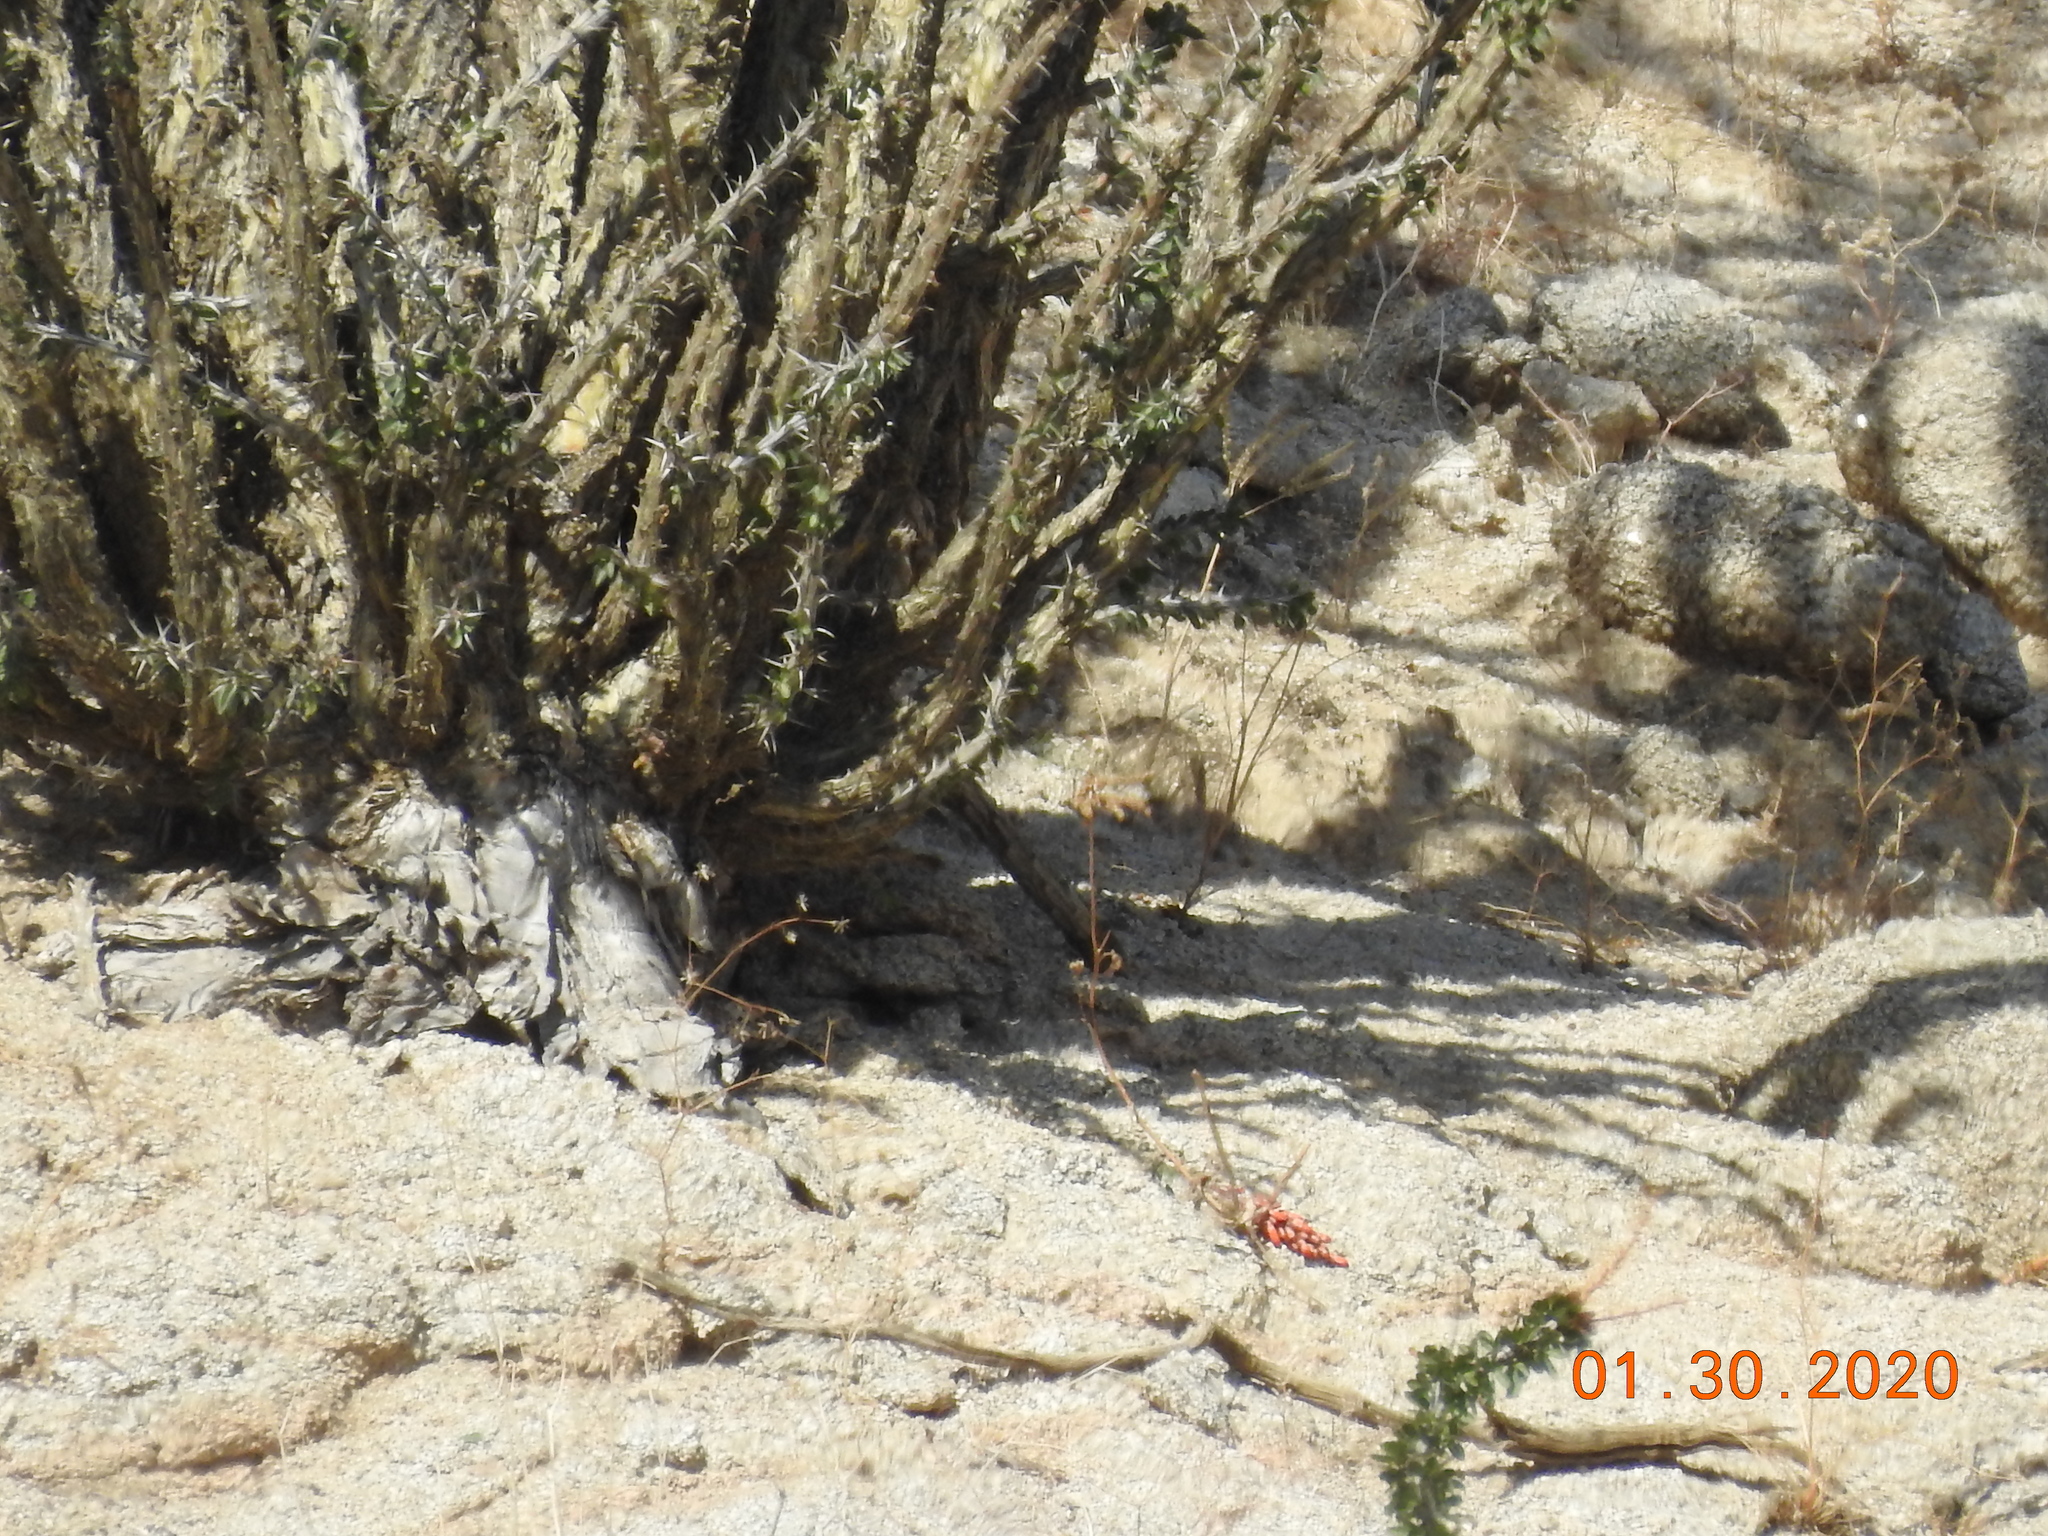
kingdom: Plantae
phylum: Tracheophyta
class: Magnoliopsida
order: Ericales
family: Fouquieriaceae
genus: Fouquieria
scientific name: Fouquieria splendens
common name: Vine-cactus
